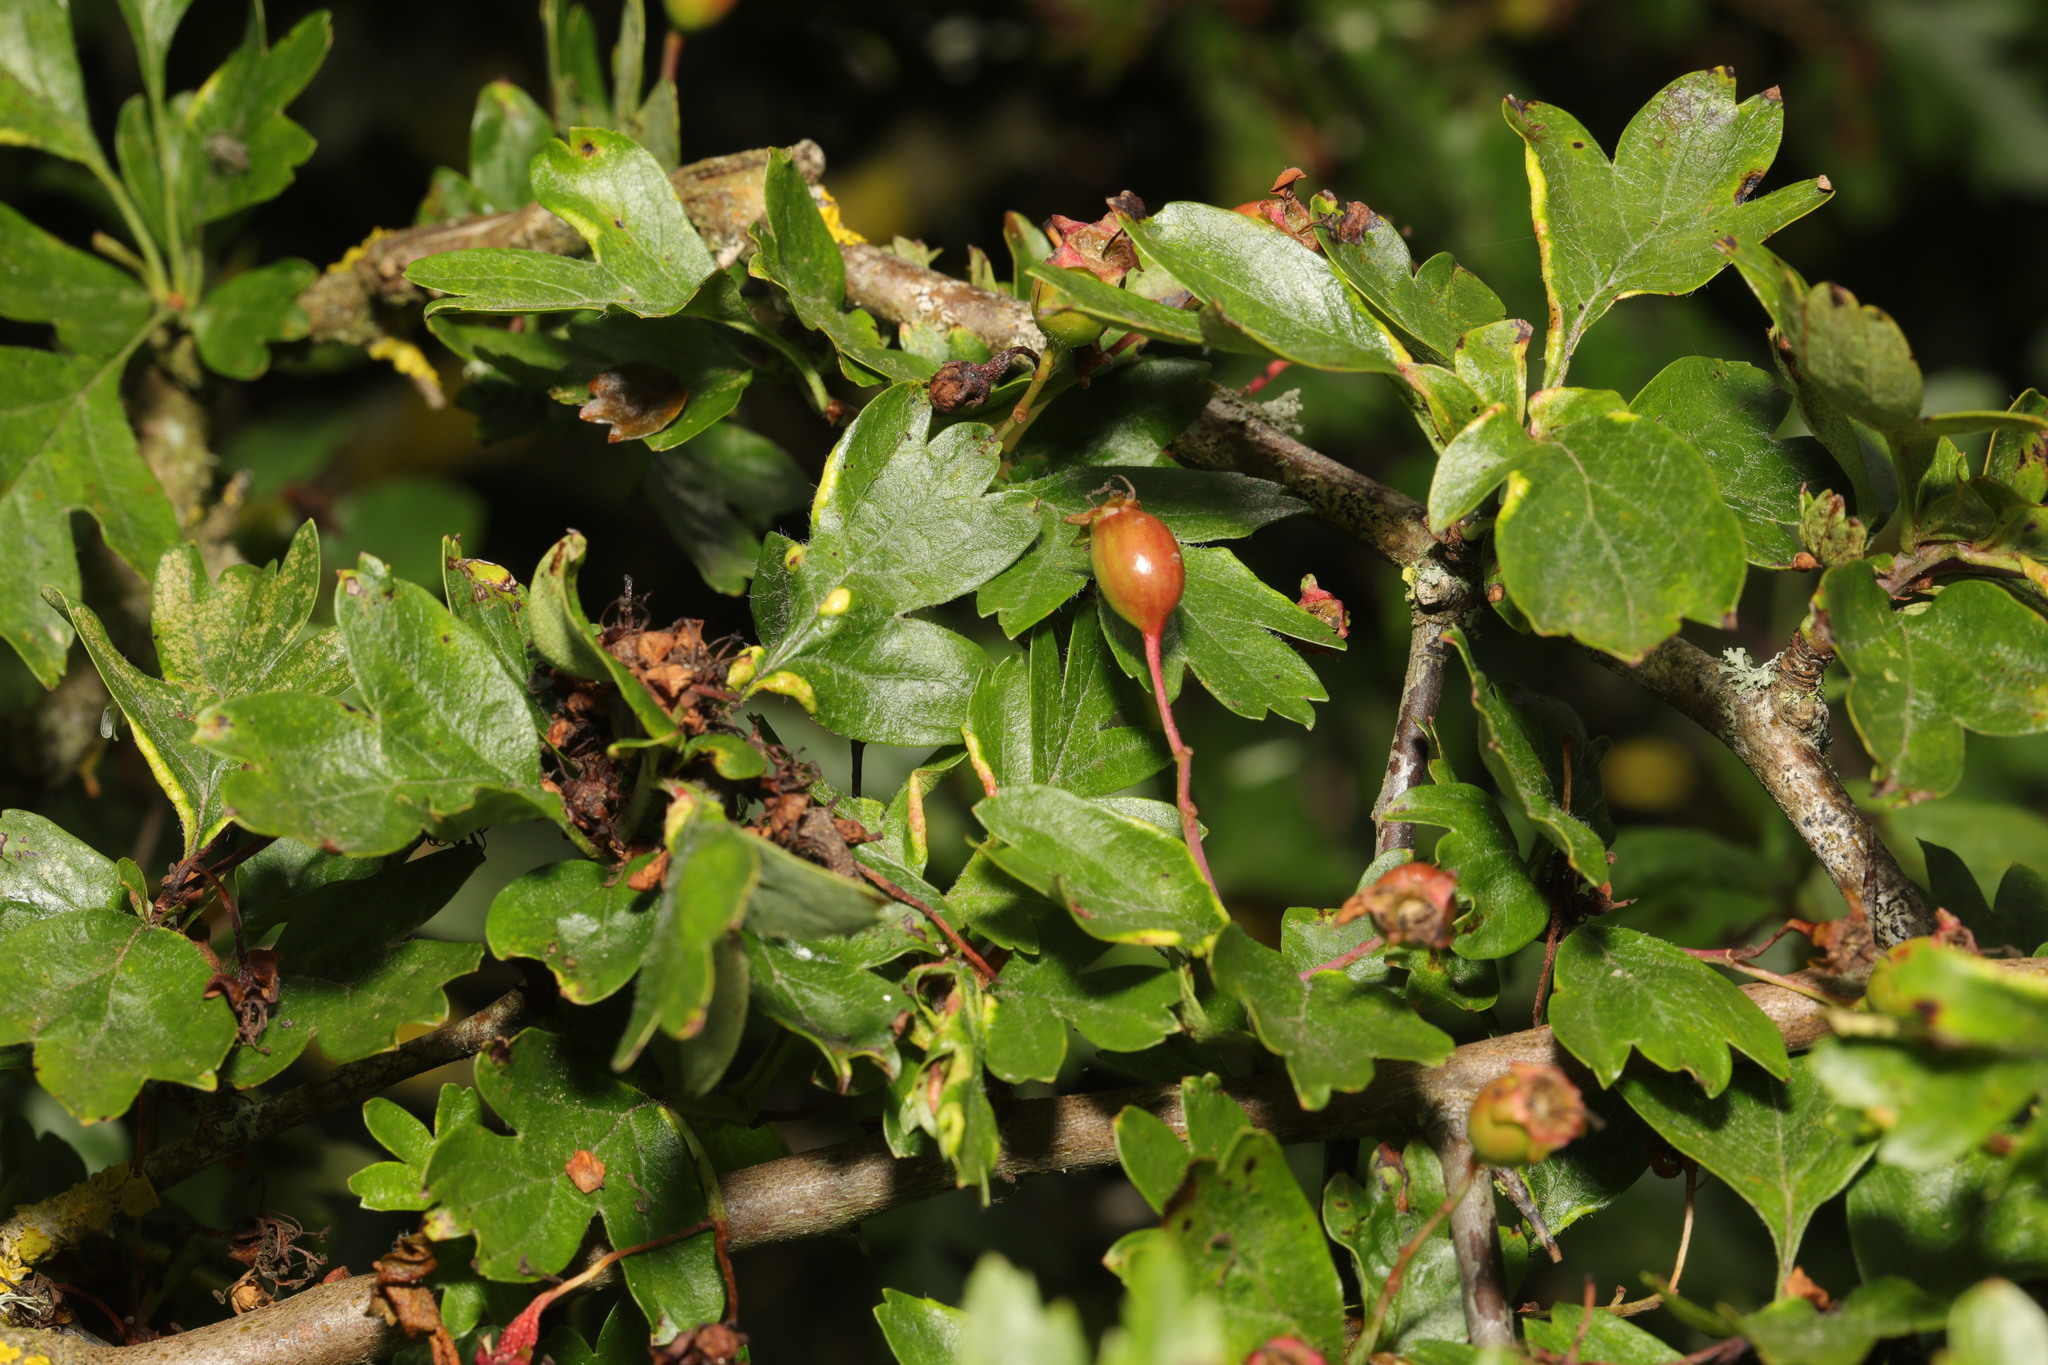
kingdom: Plantae
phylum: Tracheophyta
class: Magnoliopsida
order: Rosales
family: Rosaceae
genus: Crataegus
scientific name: Crataegus monogyna
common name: Hawthorn
